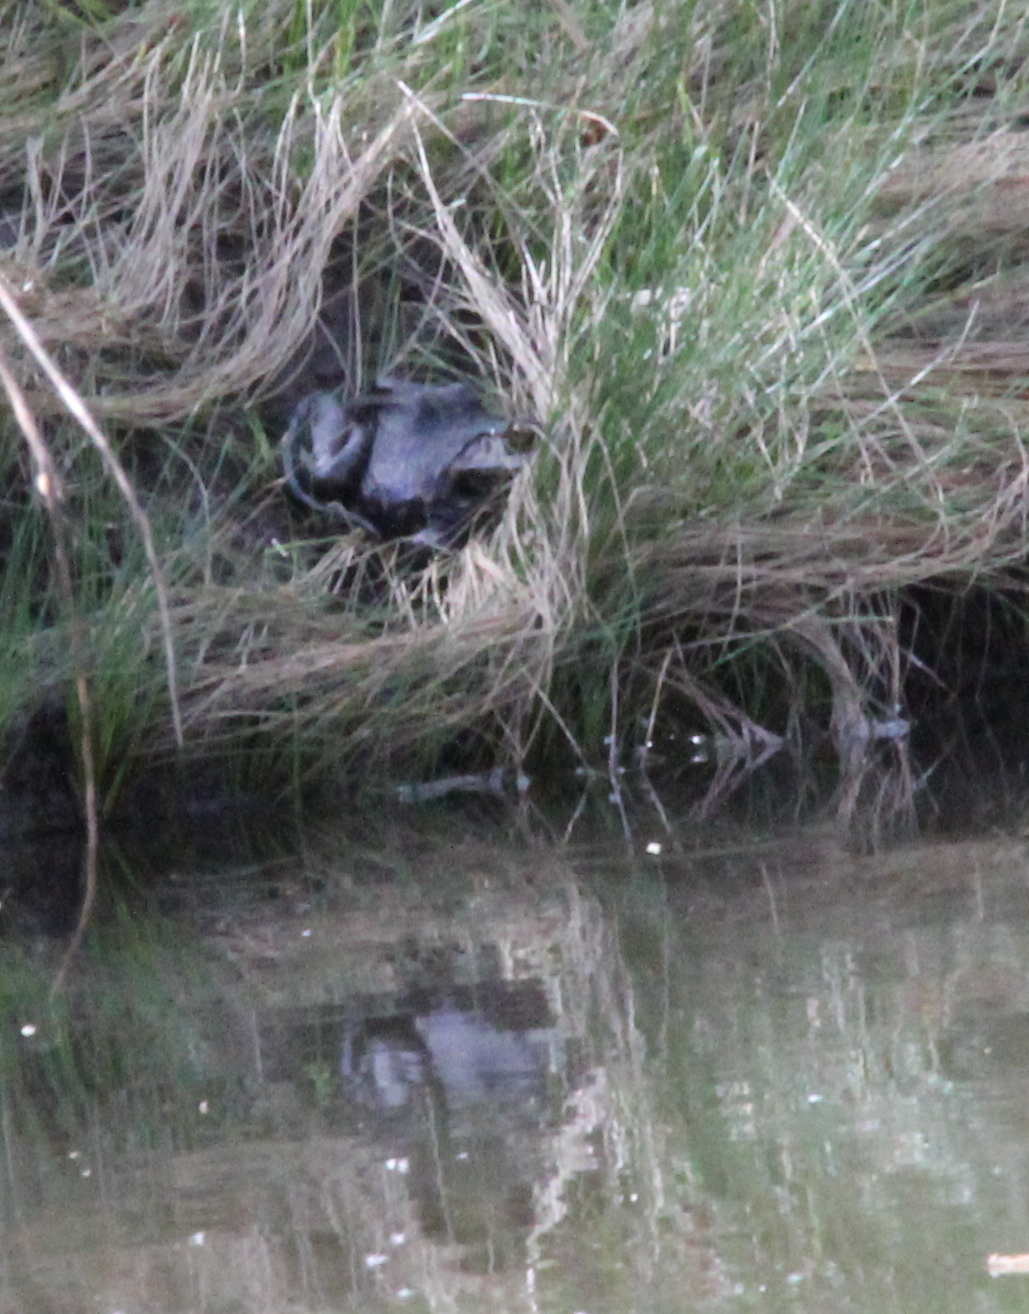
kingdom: Animalia
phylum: Chordata
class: Amphibia
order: Anura
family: Ranidae
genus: Lithobates
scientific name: Lithobates catesbeianus
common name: American bullfrog
